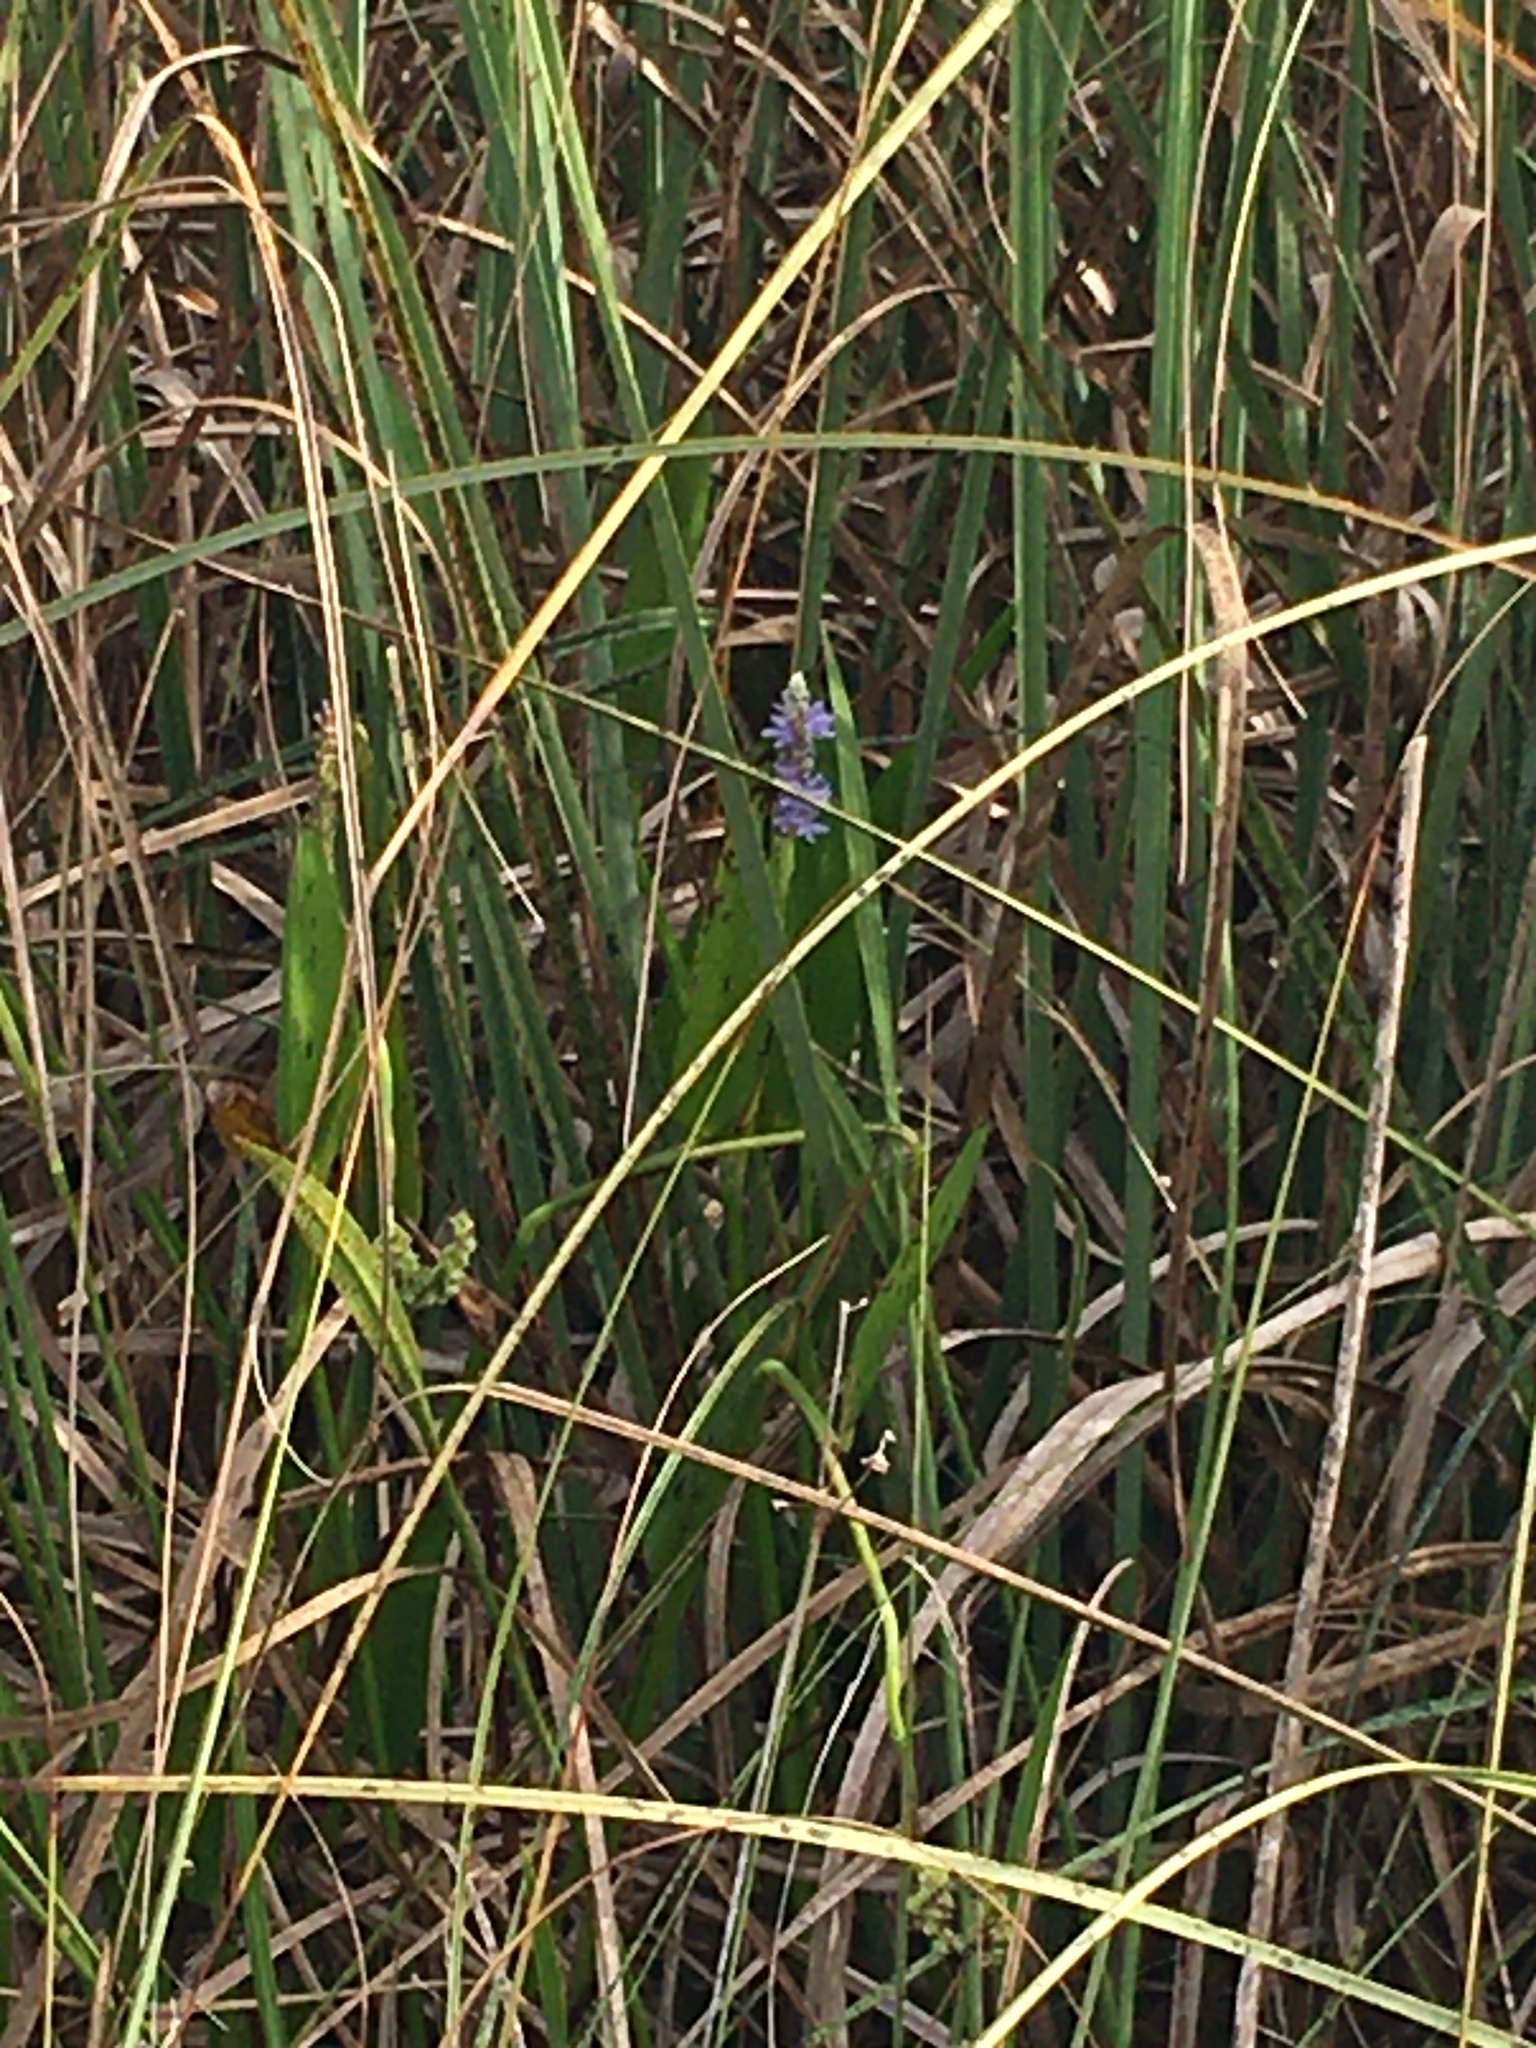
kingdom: Plantae
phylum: Tracheophyta
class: Liliopsida
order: Commelinales
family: Pontederiaceae
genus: Pontederia
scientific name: Pontederia cordata
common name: Pickerelweed
